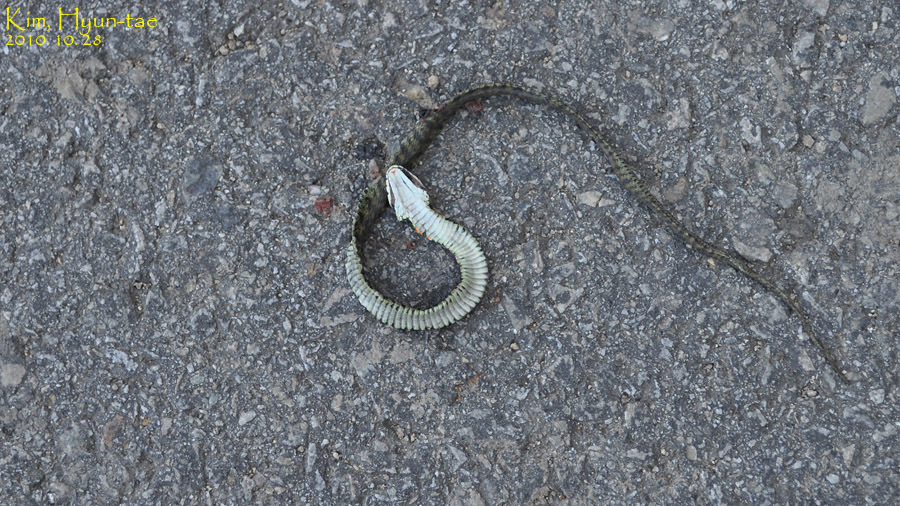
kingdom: Animalia
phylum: Chordata
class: Squamata
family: Colubridae
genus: Rhabdophis
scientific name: Rhabdophis tigrinus
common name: Tiger keelback
